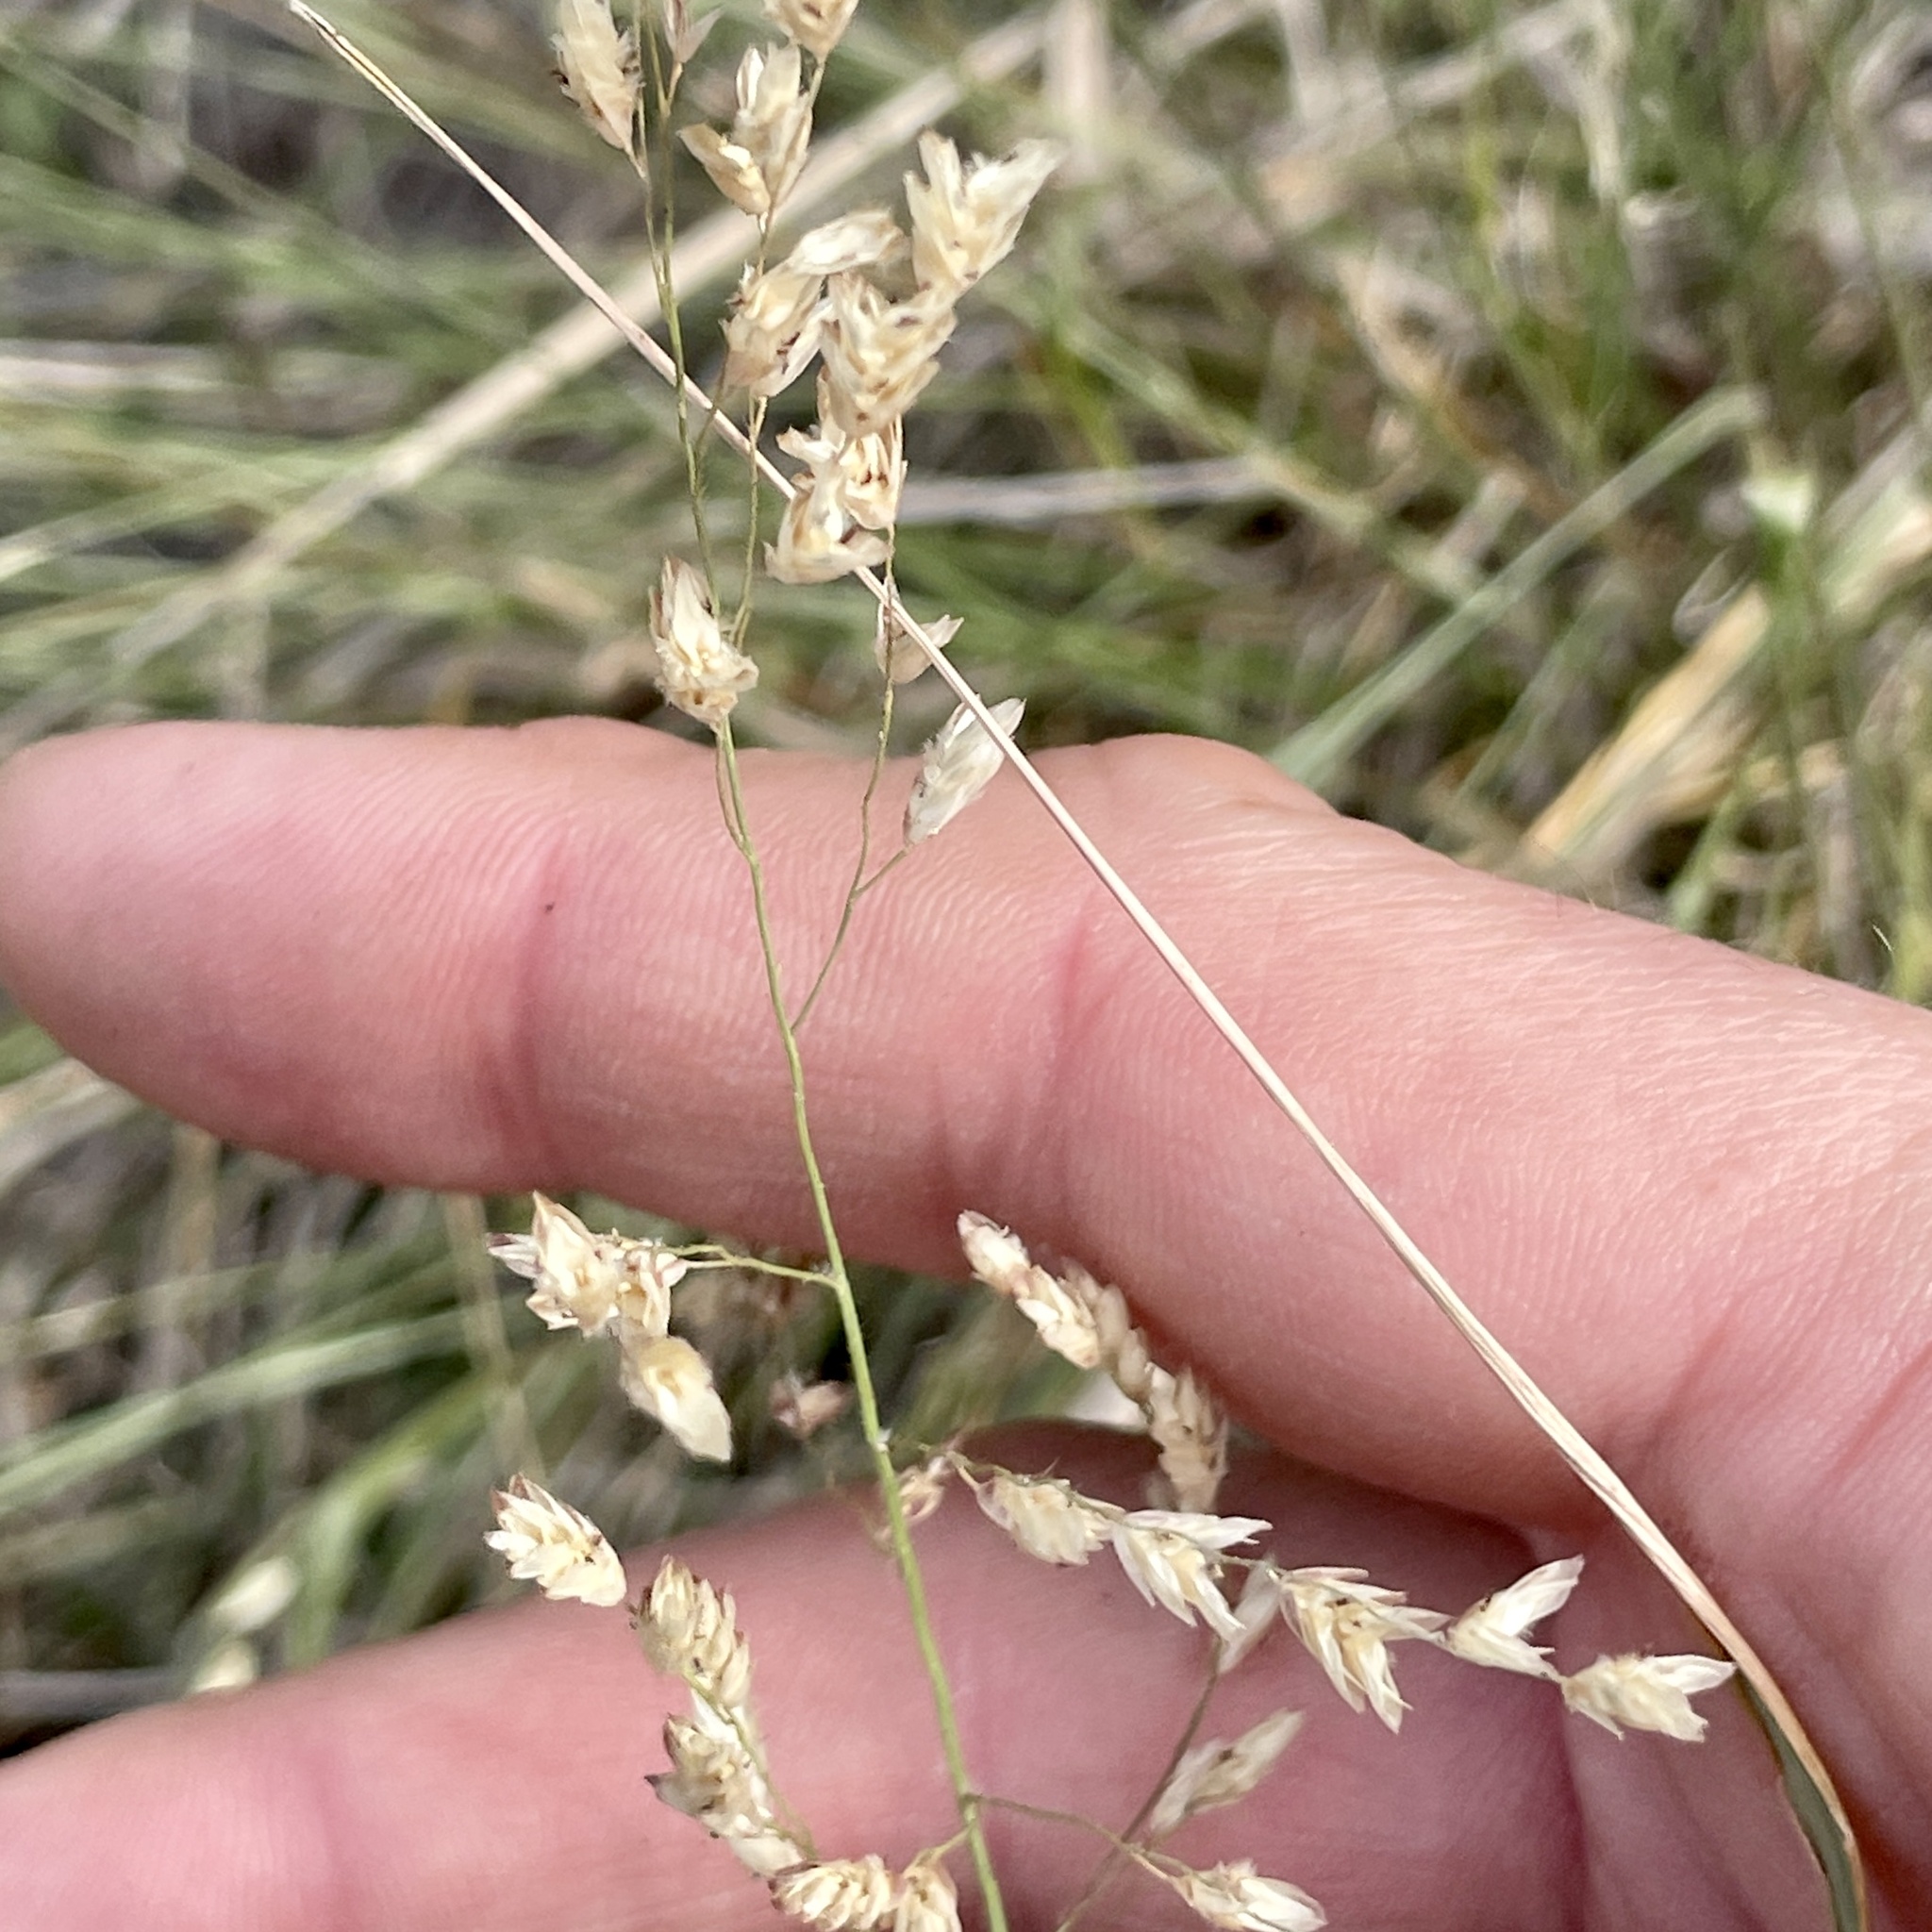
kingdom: Plantae
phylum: Tracheophyta
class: Liliopsida
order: Poales
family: Poaceae
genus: Tridens
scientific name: Tridens texanus
